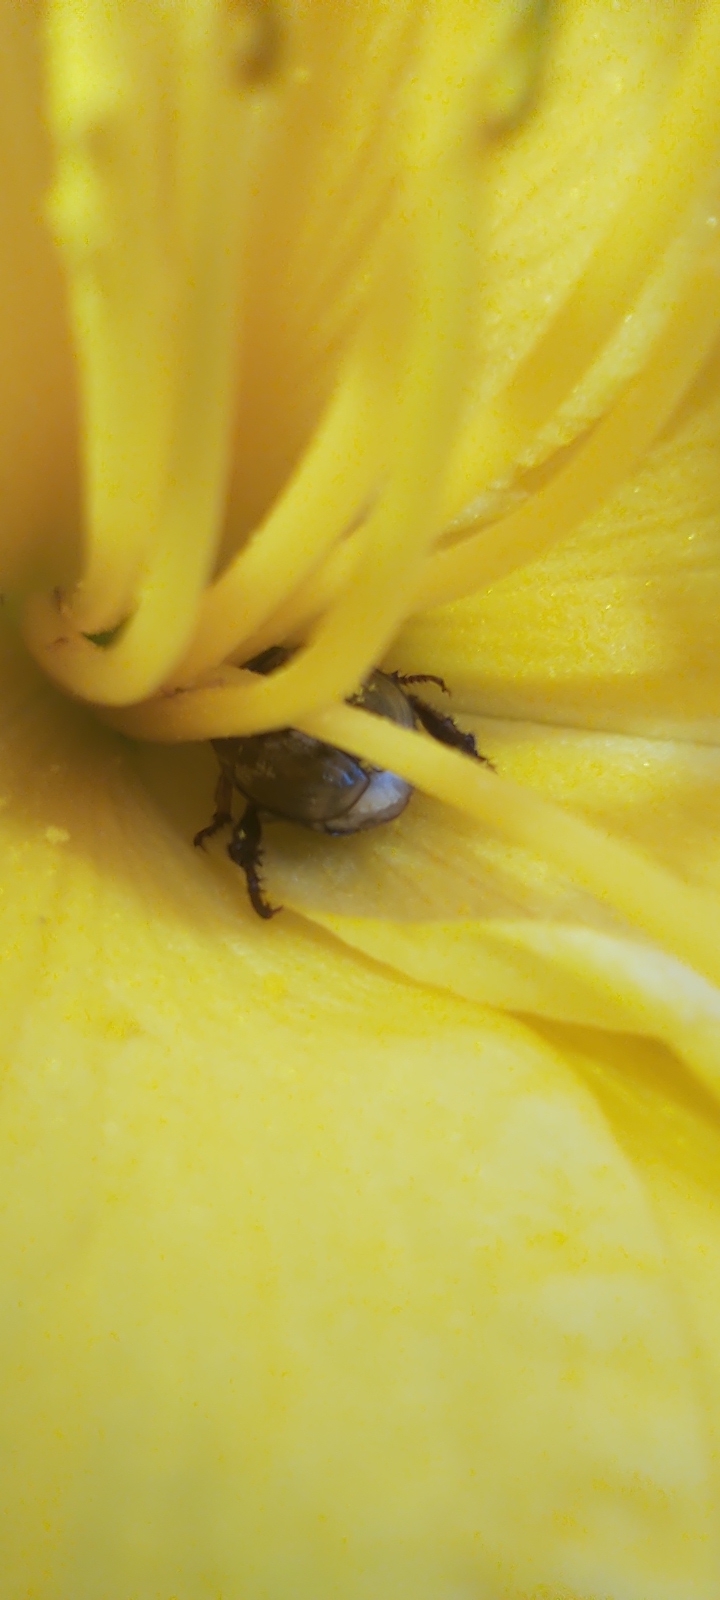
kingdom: Animalia
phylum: Arthropoda
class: Insecta
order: Coleoptera
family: Scarabaeidae
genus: Exomala
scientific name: Exomala orientalis
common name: Oriental beetle
